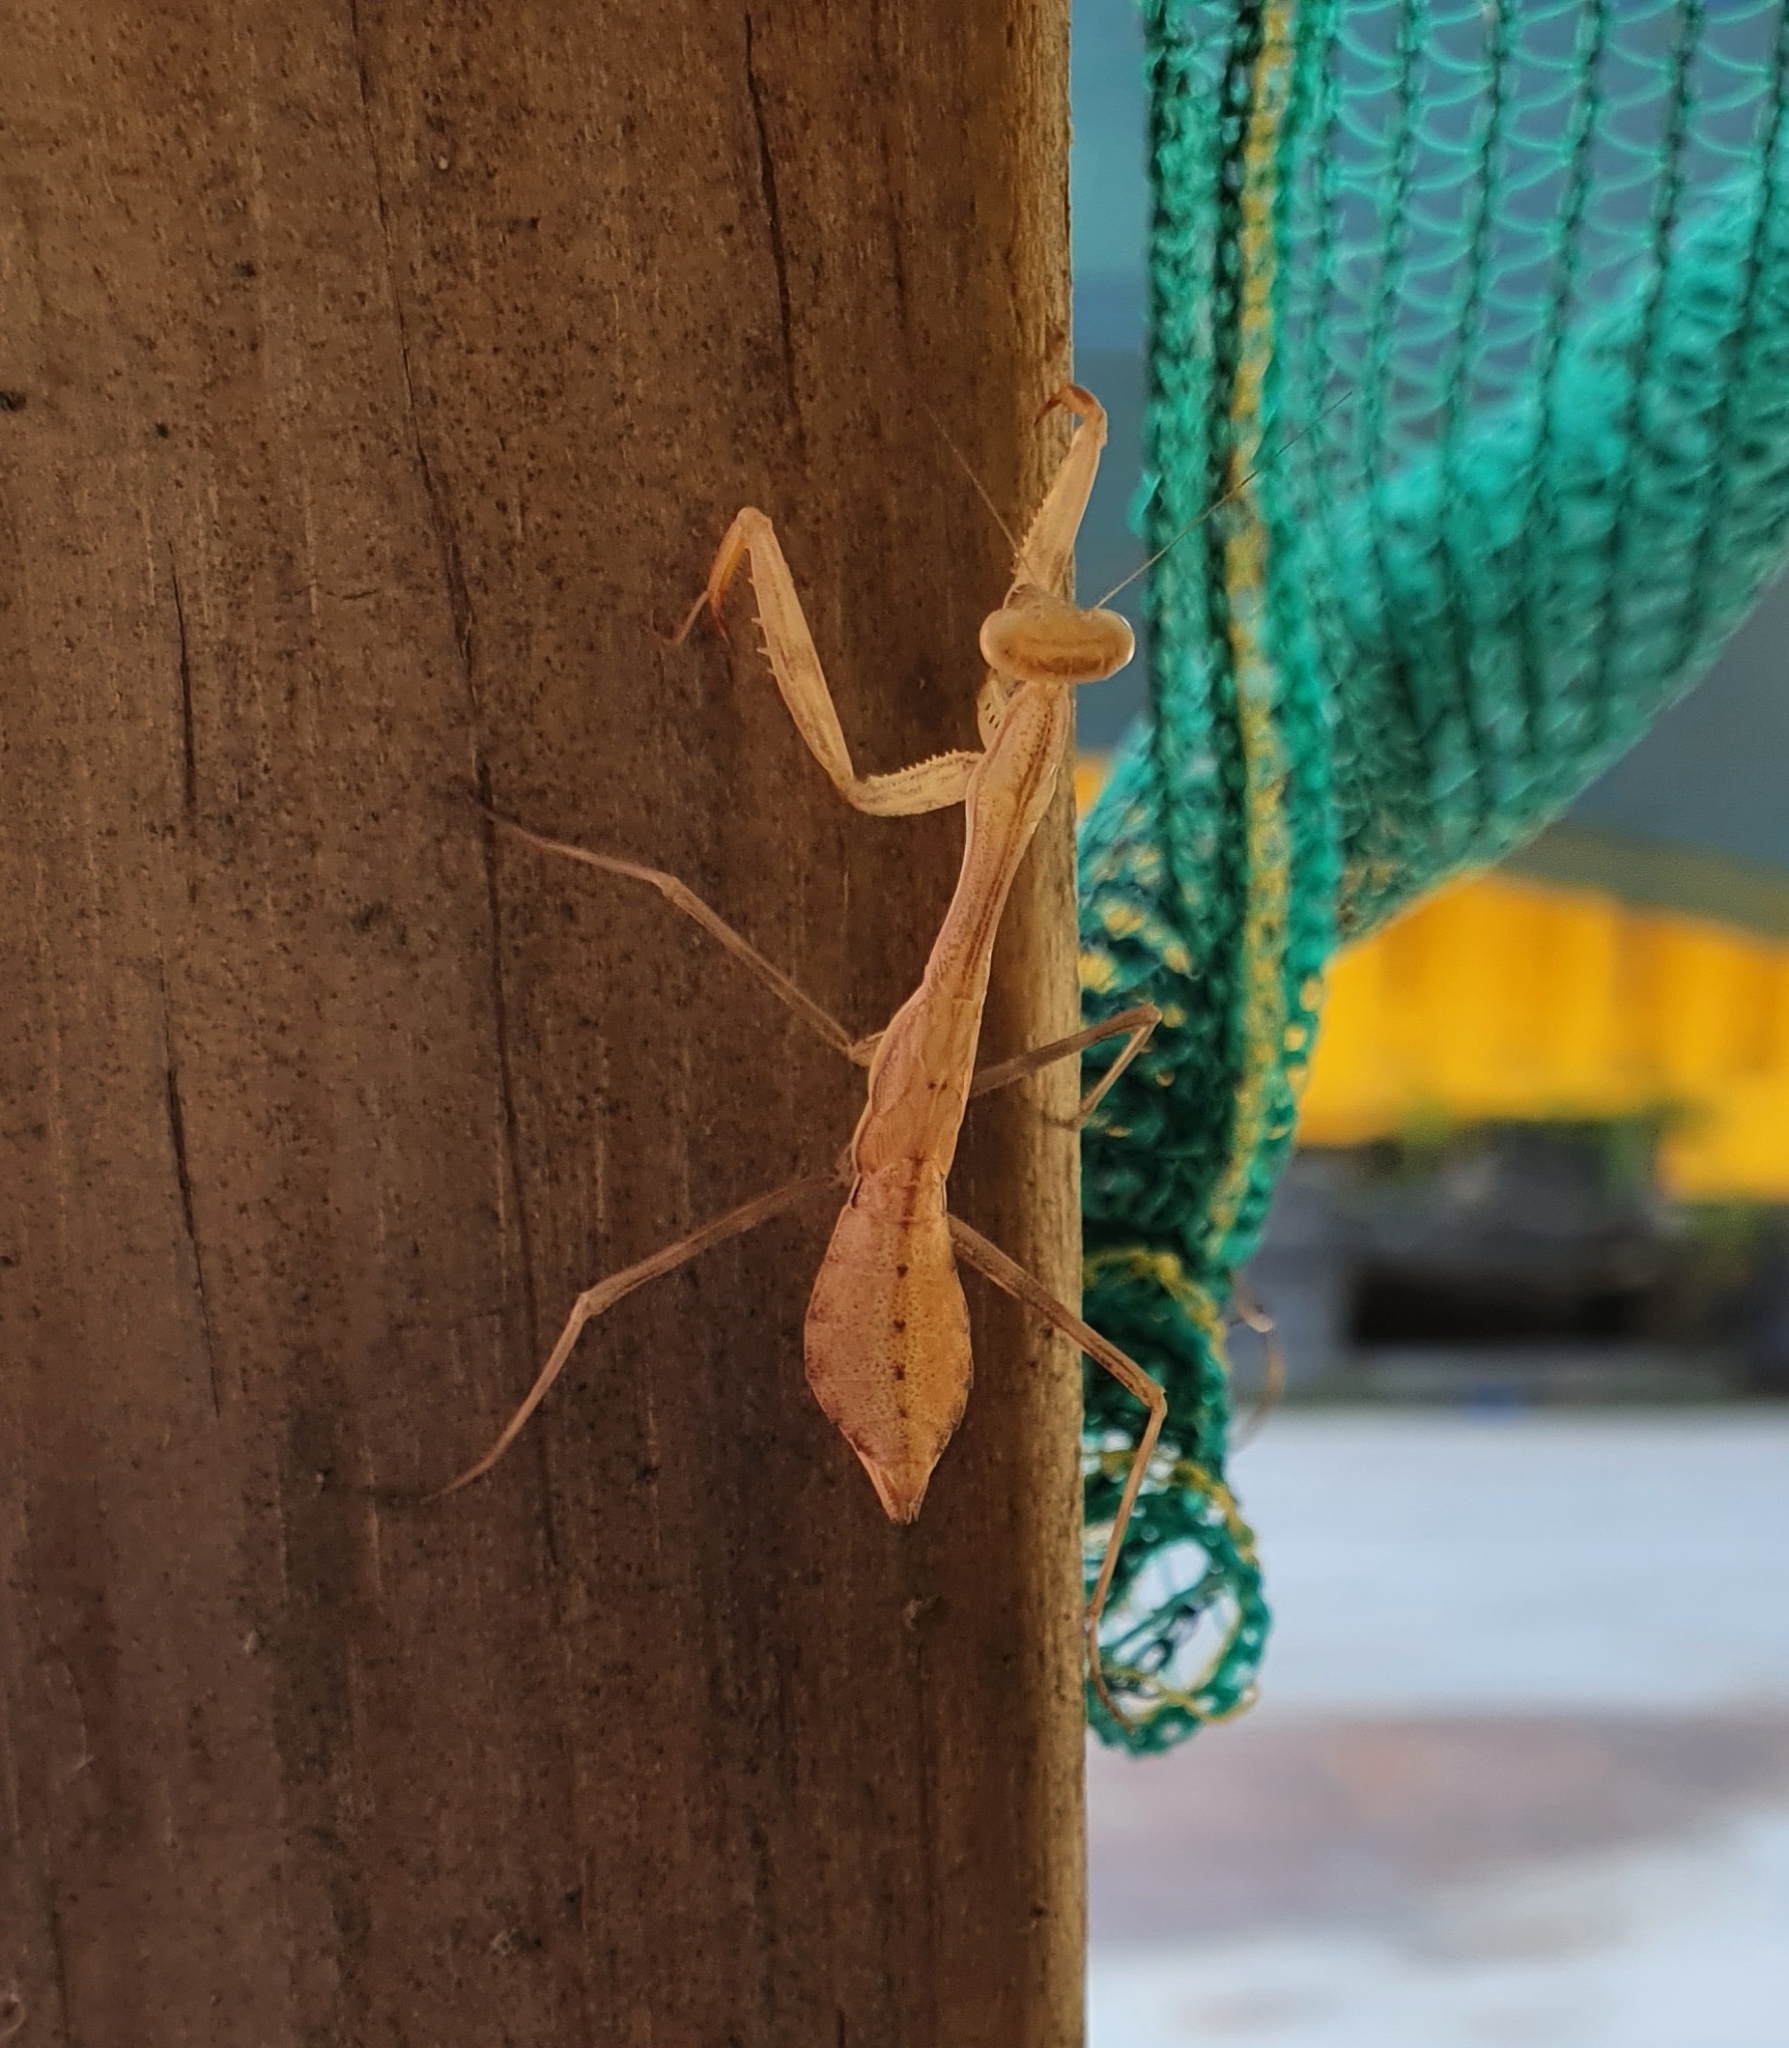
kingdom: Animalia
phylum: Arthropoda
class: Insecta
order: Mantodea
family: Miomantidae
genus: Miomantis
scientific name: Miomantis caffra
